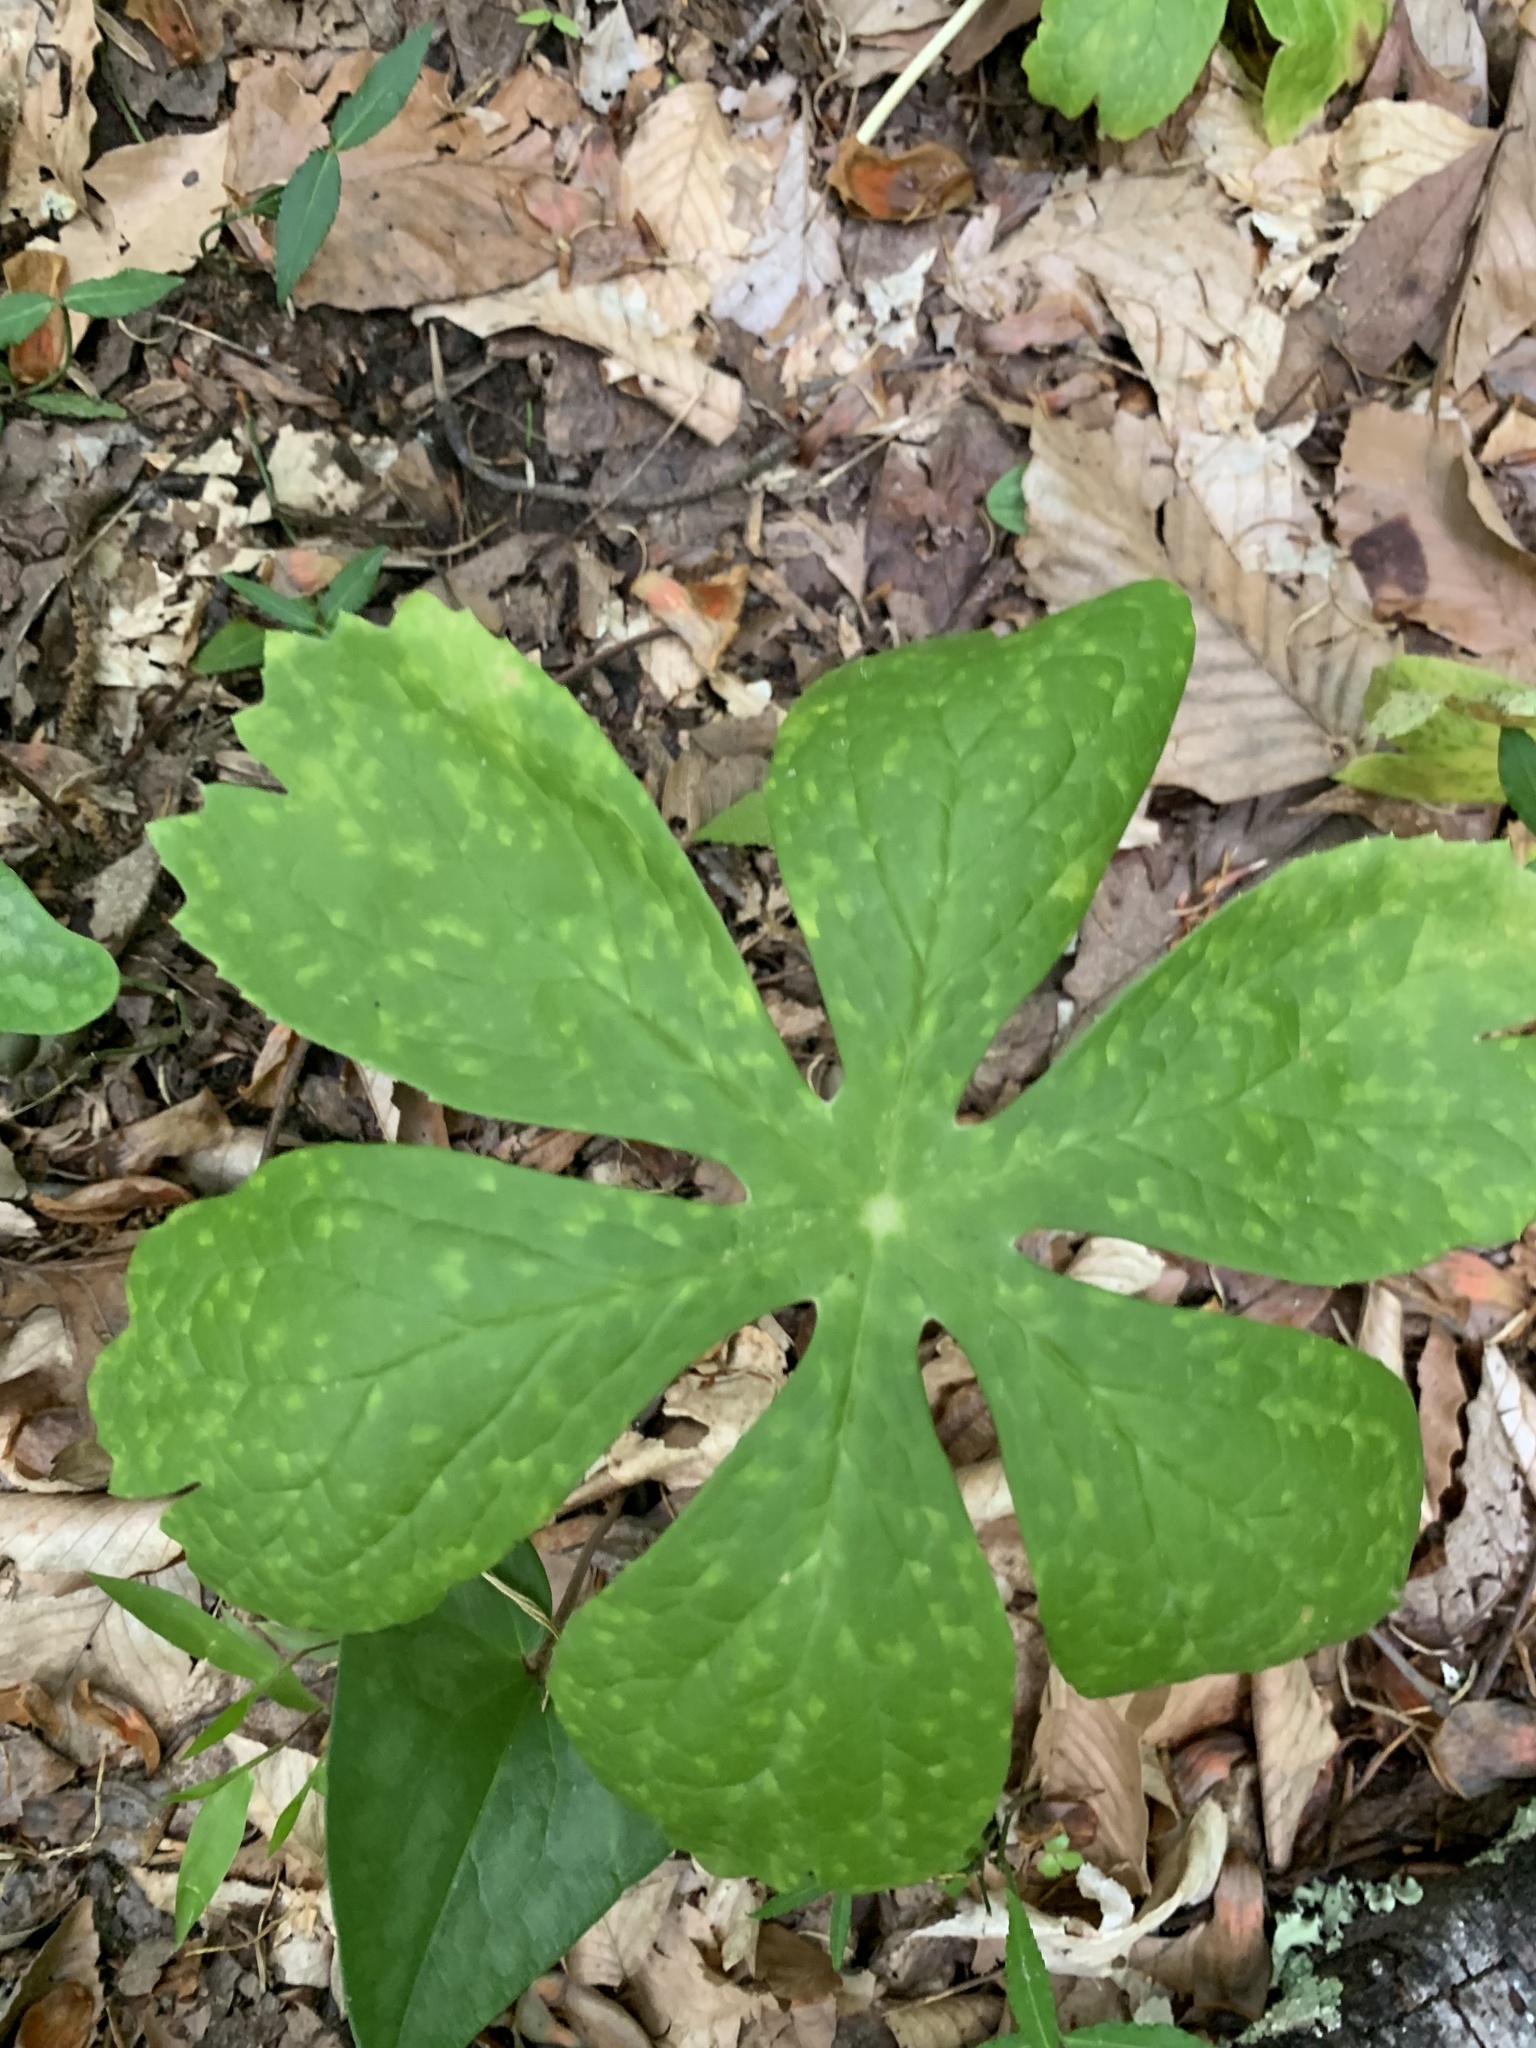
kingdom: Plantae
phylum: Tracheophyta
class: Magnoliopsida
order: Ranunculales
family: Berberidaceae
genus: Podophyllum
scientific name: Podophyllum peltatum
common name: Wild mandrake
